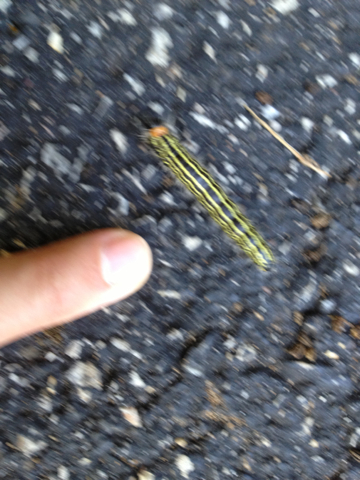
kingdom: Animalia
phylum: Arthropoda
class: Insecta
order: Lepidoptera
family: Notodontidae
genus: Datana
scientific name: Datana ministra
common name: Yellow-necked caterpillar moth
